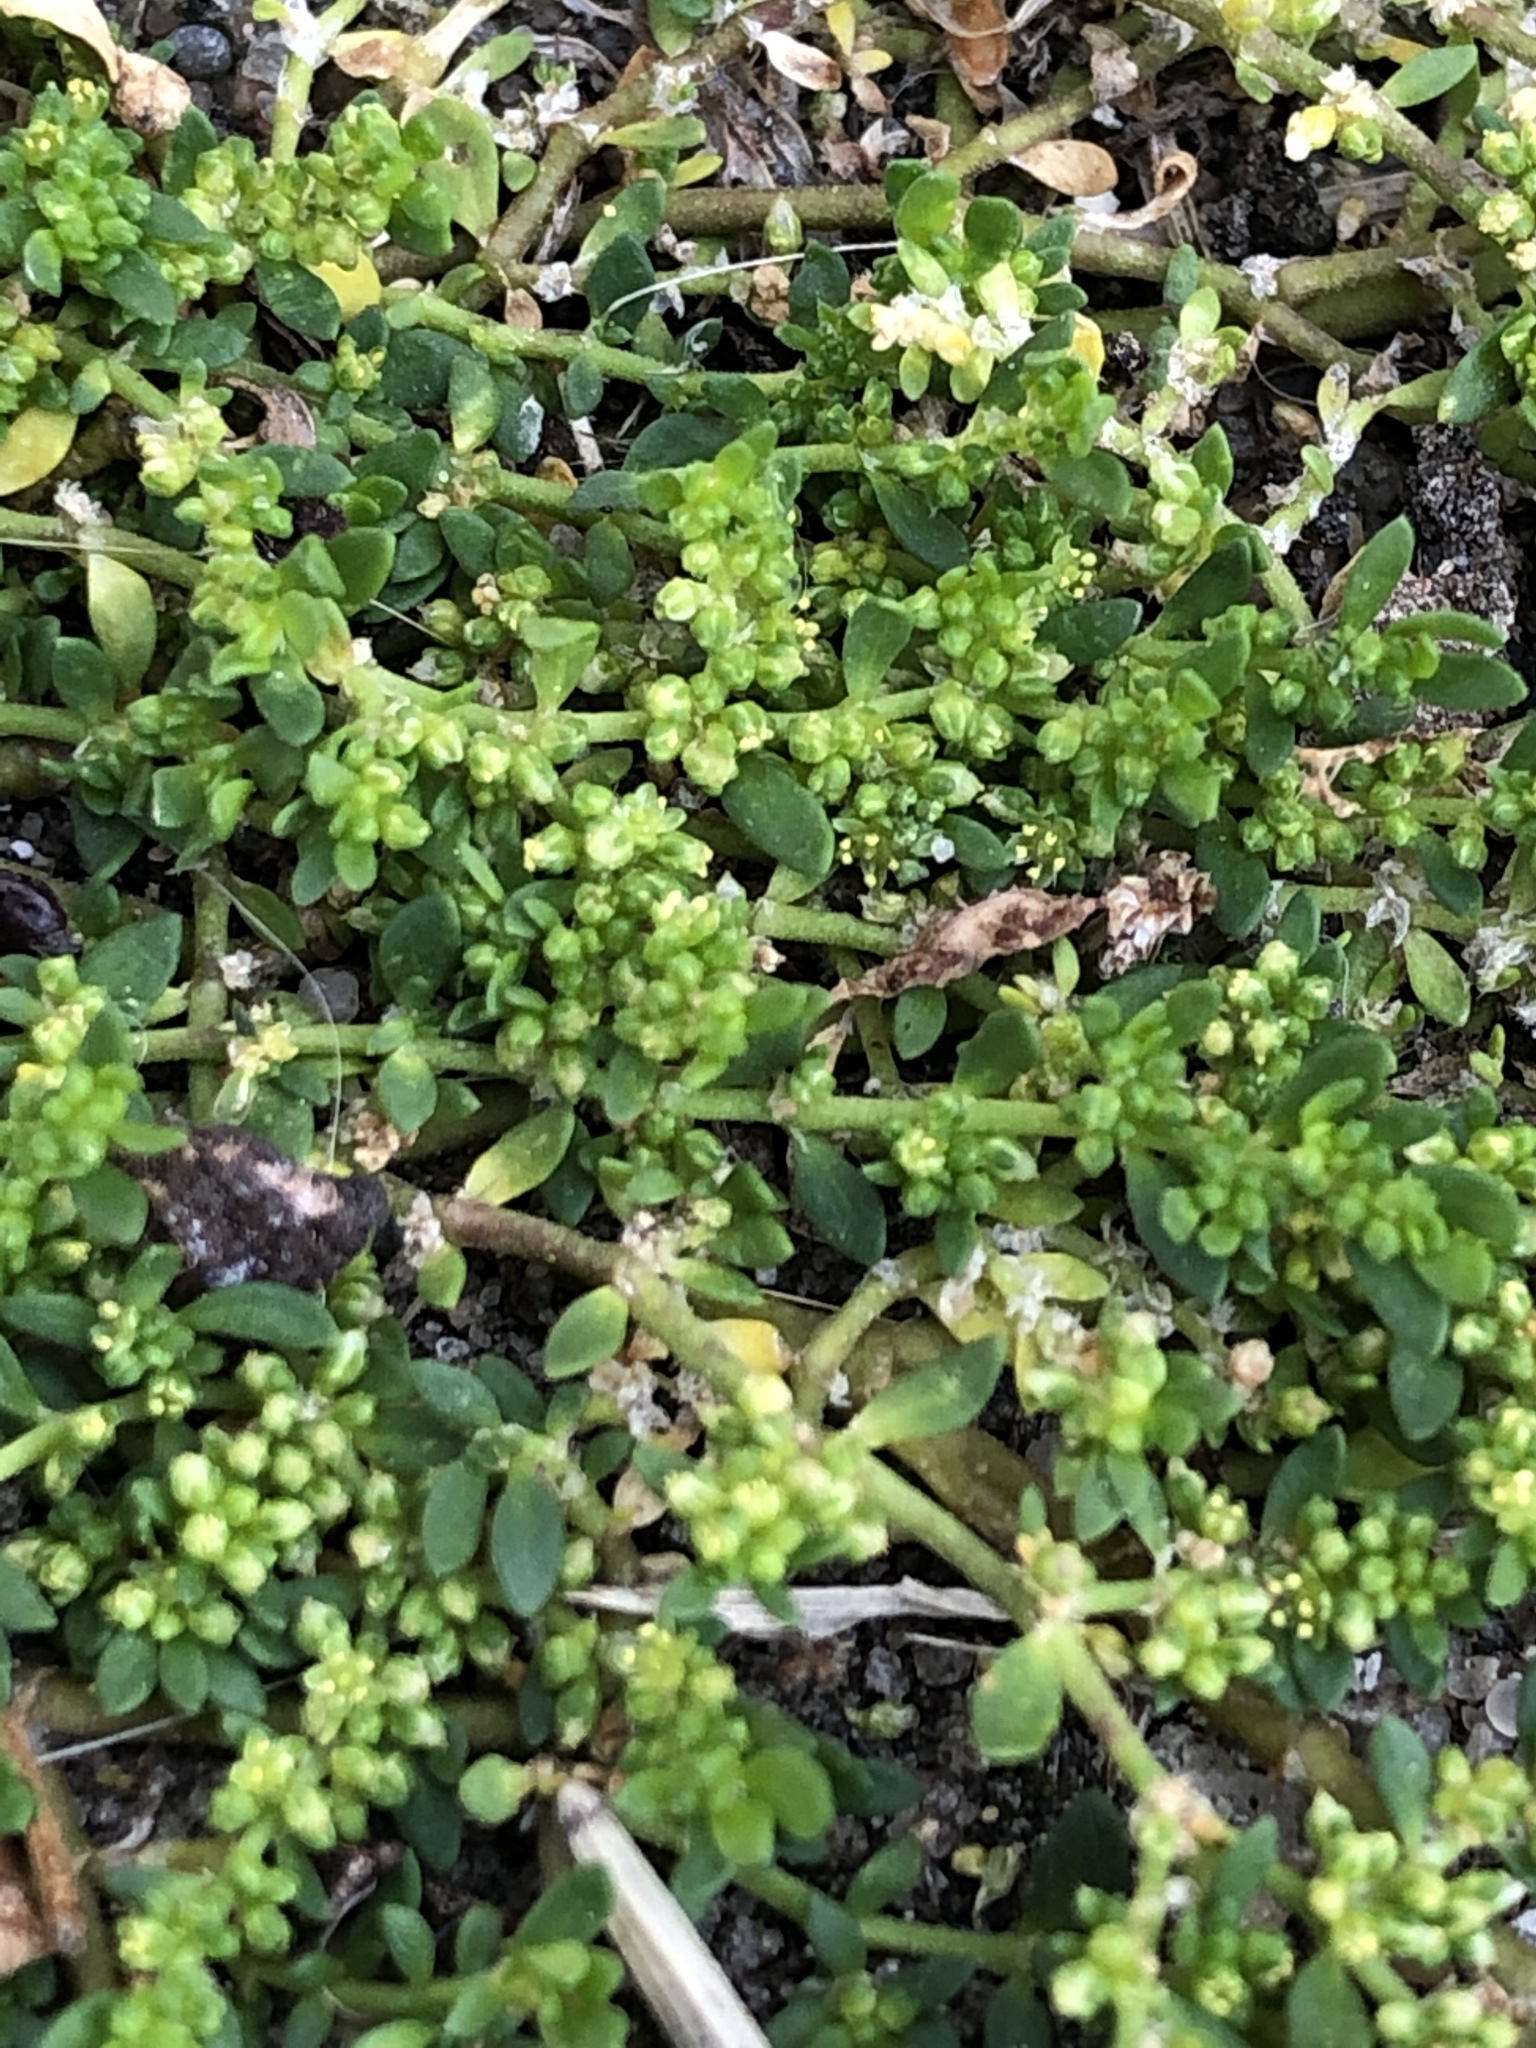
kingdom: Plantae
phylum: Tracheophyta
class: Magnoliopsida
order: Caryophyllales
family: Caryophyllaceae
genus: Herniaria
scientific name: Herniaria glabra
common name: Smooth rupturewort
